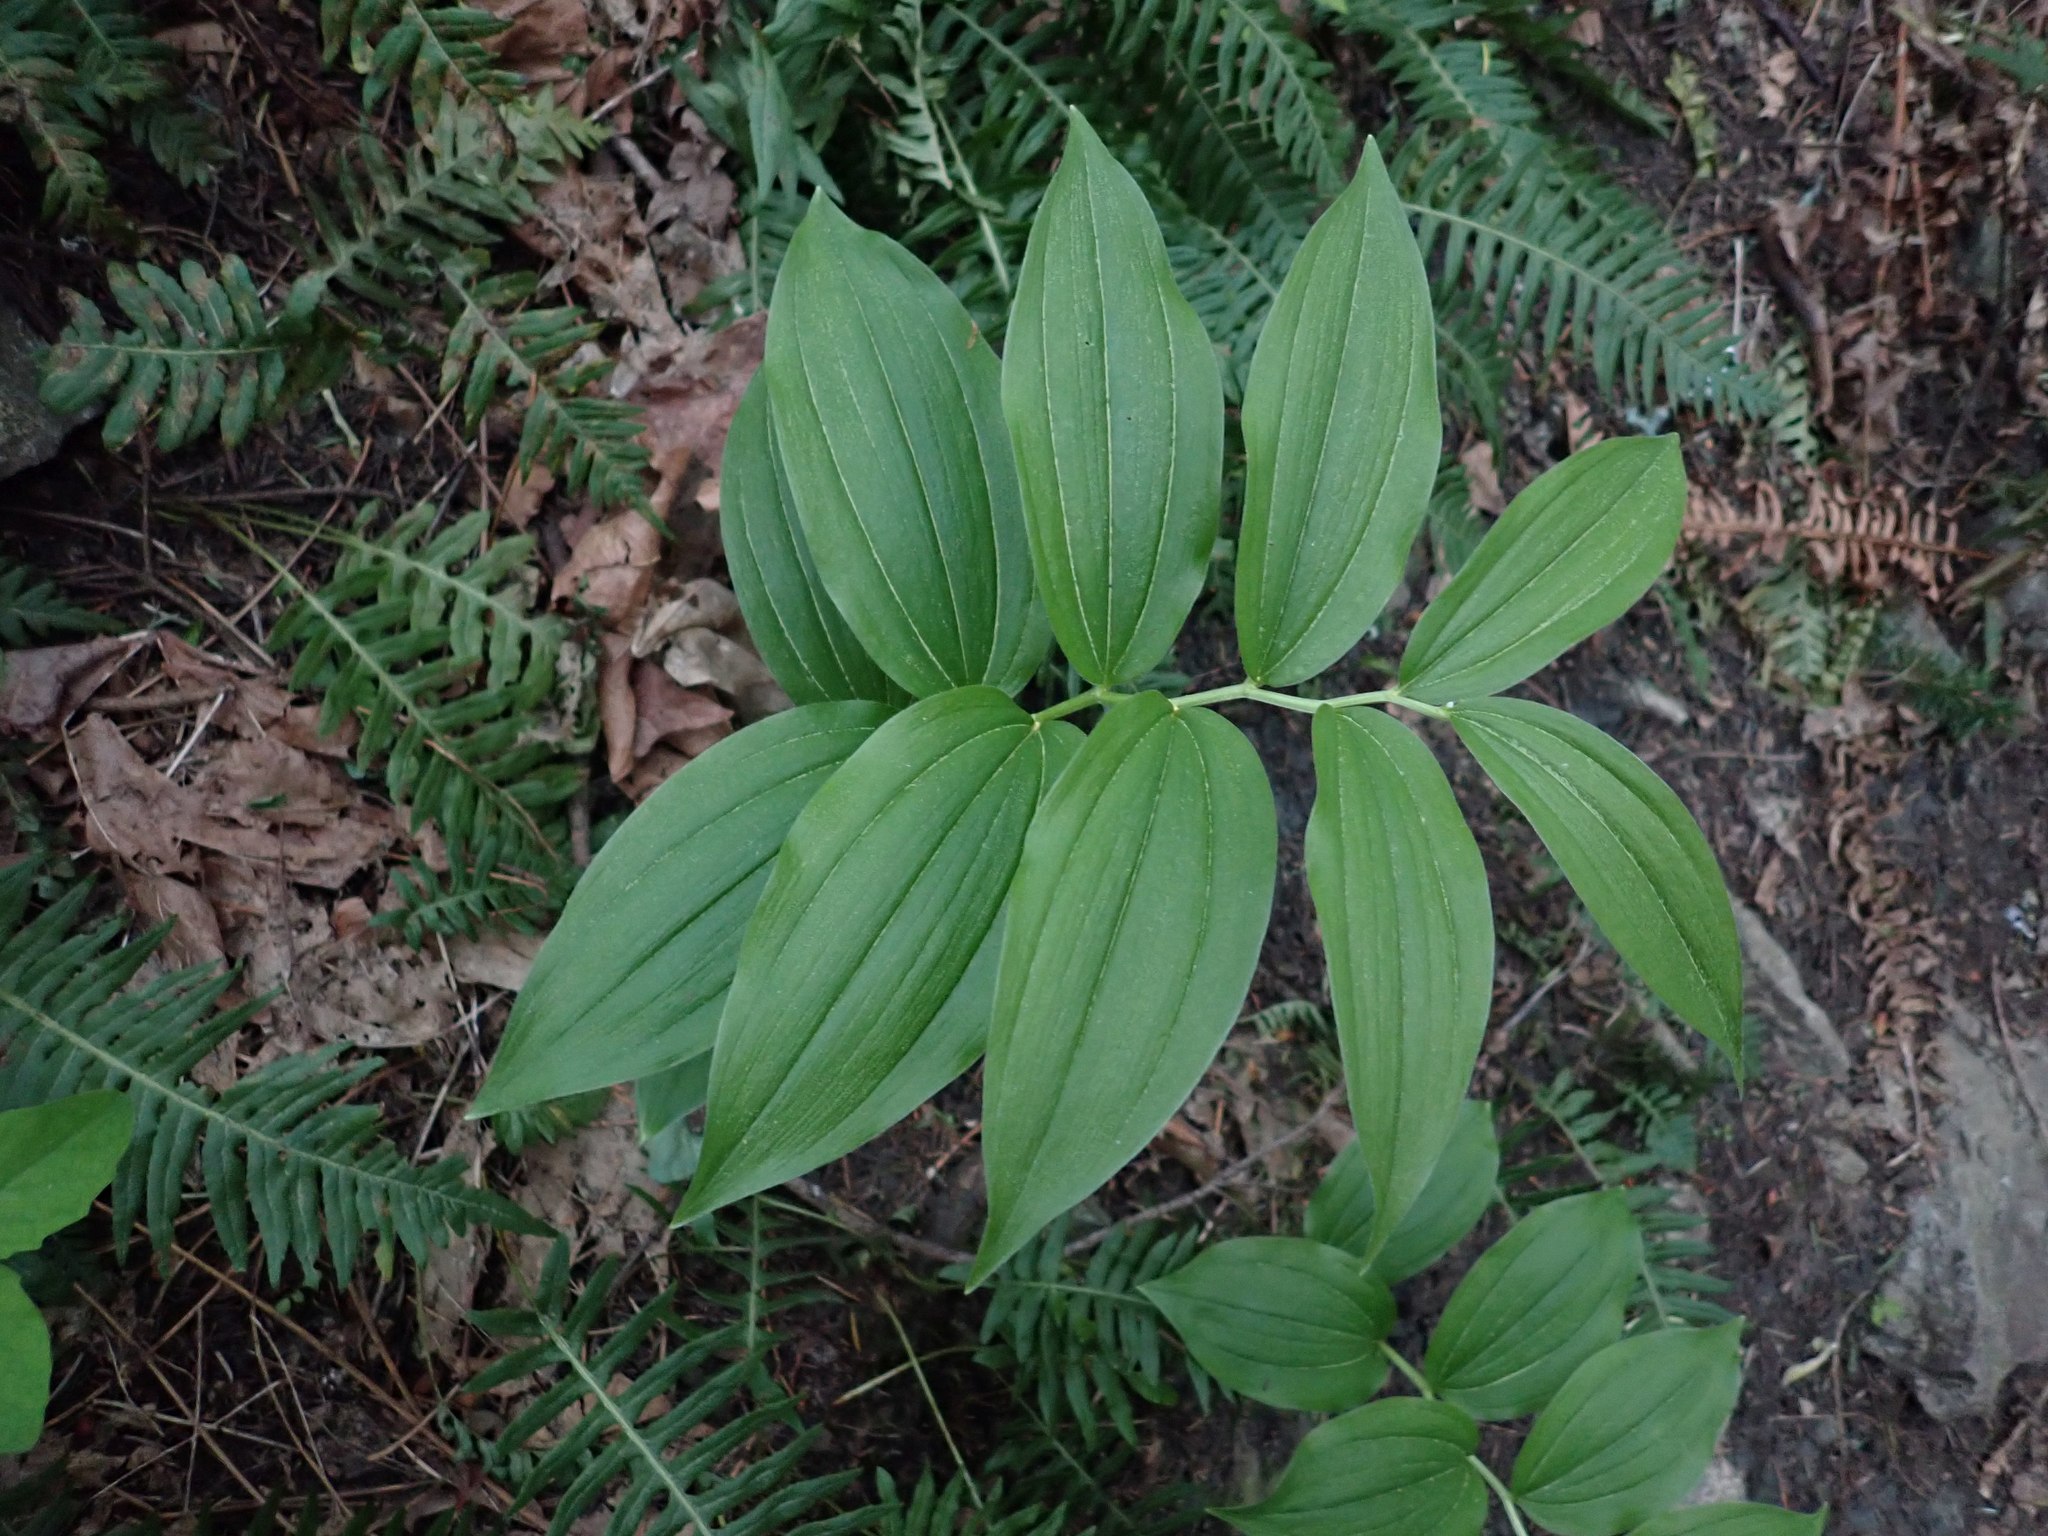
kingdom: Plantae
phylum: Tracheophyta
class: Liliopsida
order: Asparagales
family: Asparagaceae
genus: Maianthemum
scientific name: Maianthemum racemosum
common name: False spikenard
